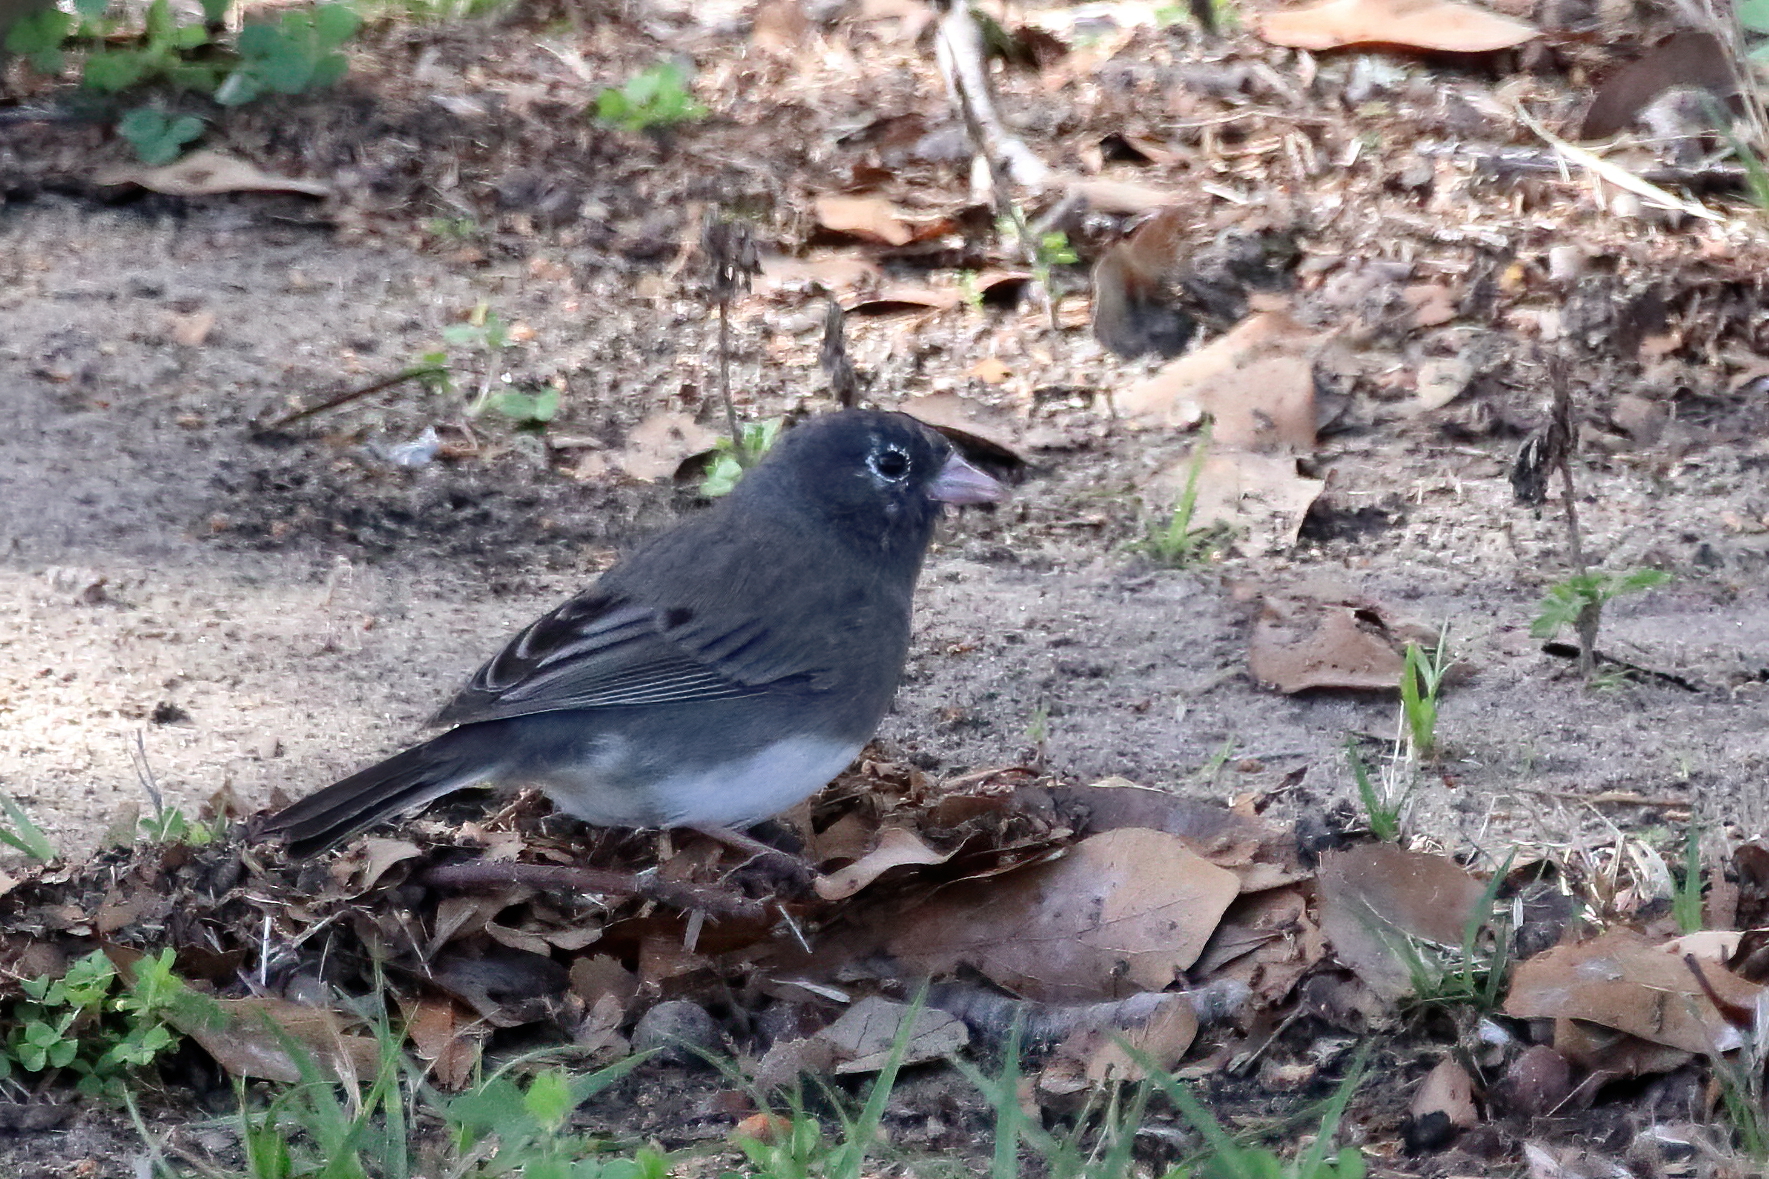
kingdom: Animalia
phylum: Chordata
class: Aves
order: Passeriformes
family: Passerellidae
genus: Junco
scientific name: Junco hyemalis
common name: Dark-eyed junco
